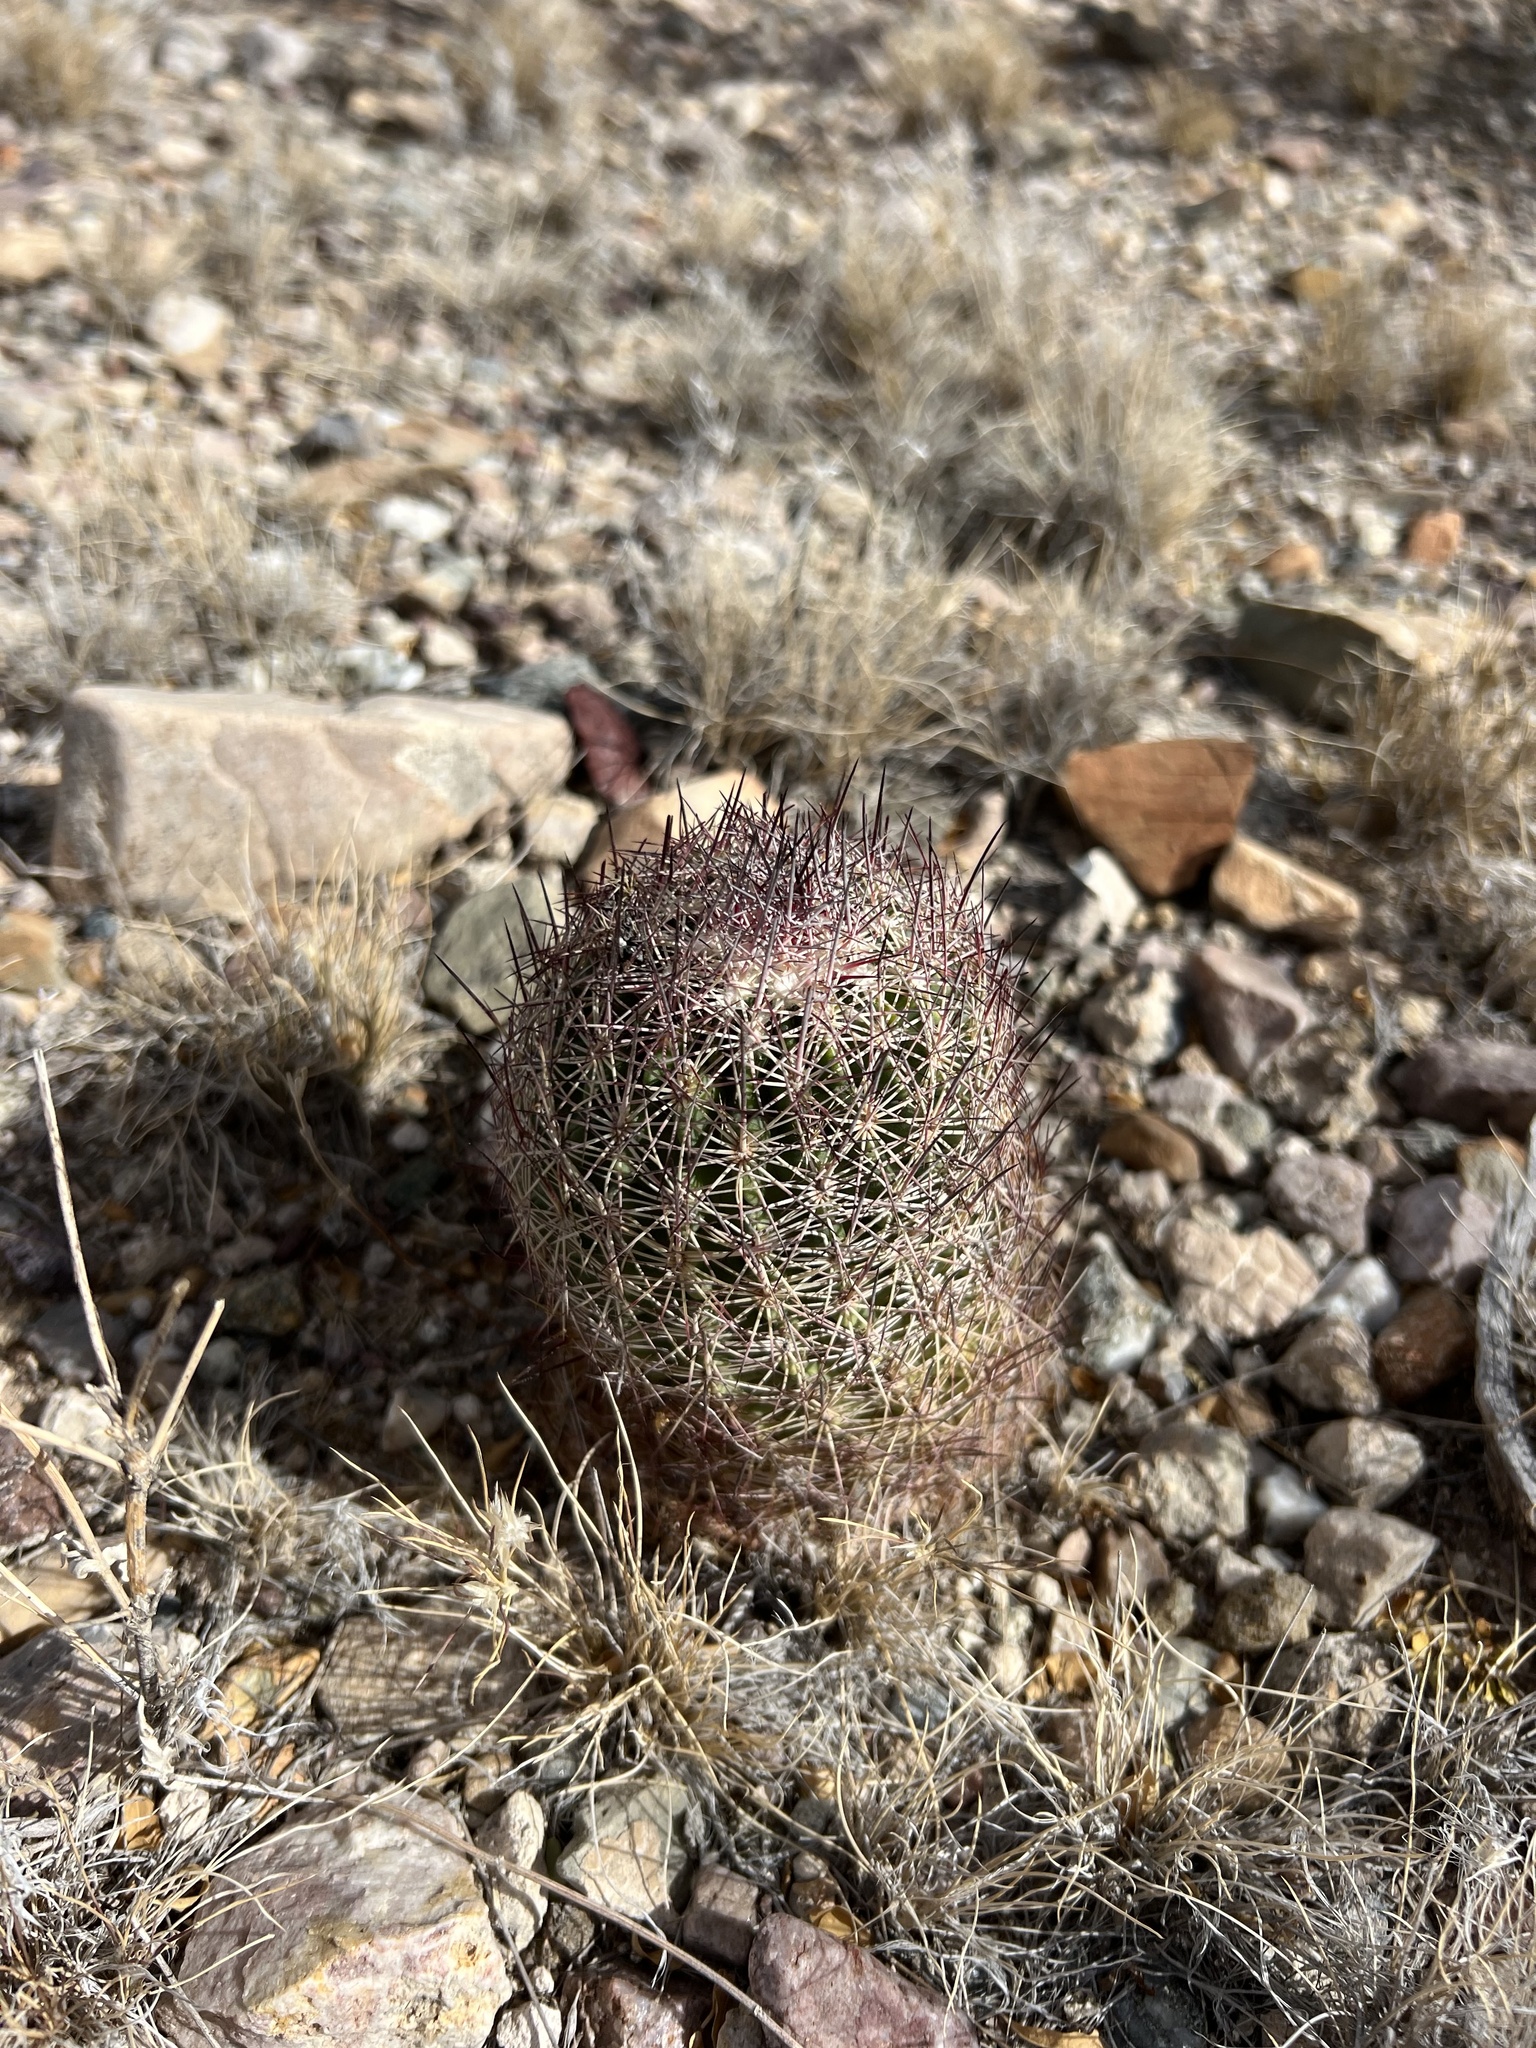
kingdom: Plantae
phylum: Tracheophyta
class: Magnoliopsida
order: Caryophyllales
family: Cactaceae
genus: Sclerocactus
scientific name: Sclerocactus johnsonii
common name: Eight-spine fishhook cactus
